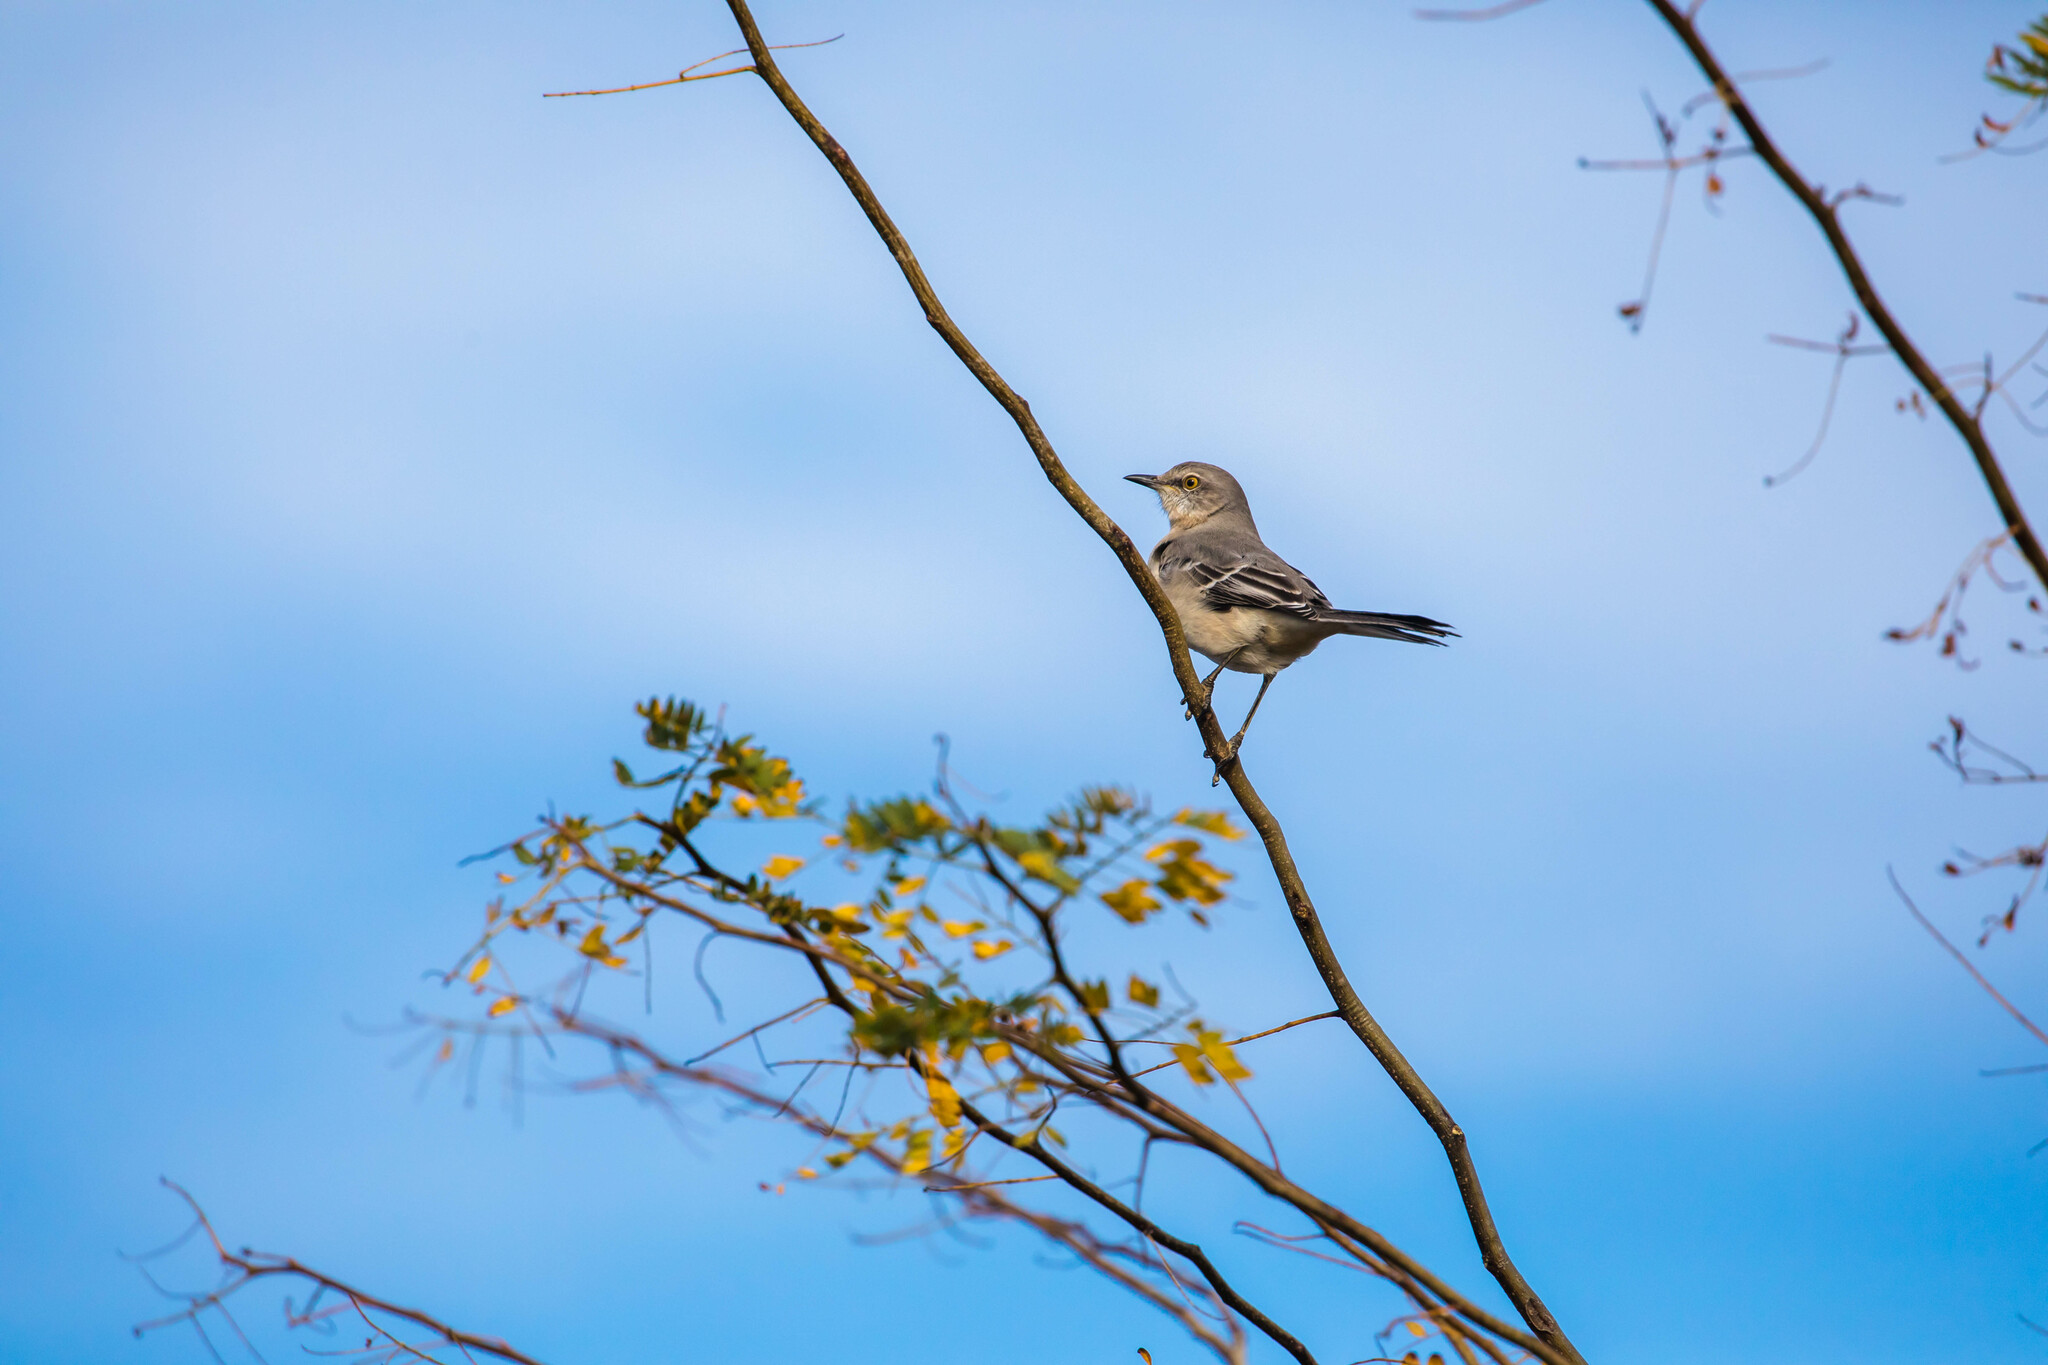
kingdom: Animalia
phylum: Chordata
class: Aves
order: Passeriformes
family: Mimidae
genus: Mimus
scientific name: Mimus polyglottos
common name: Northern mockingbird
